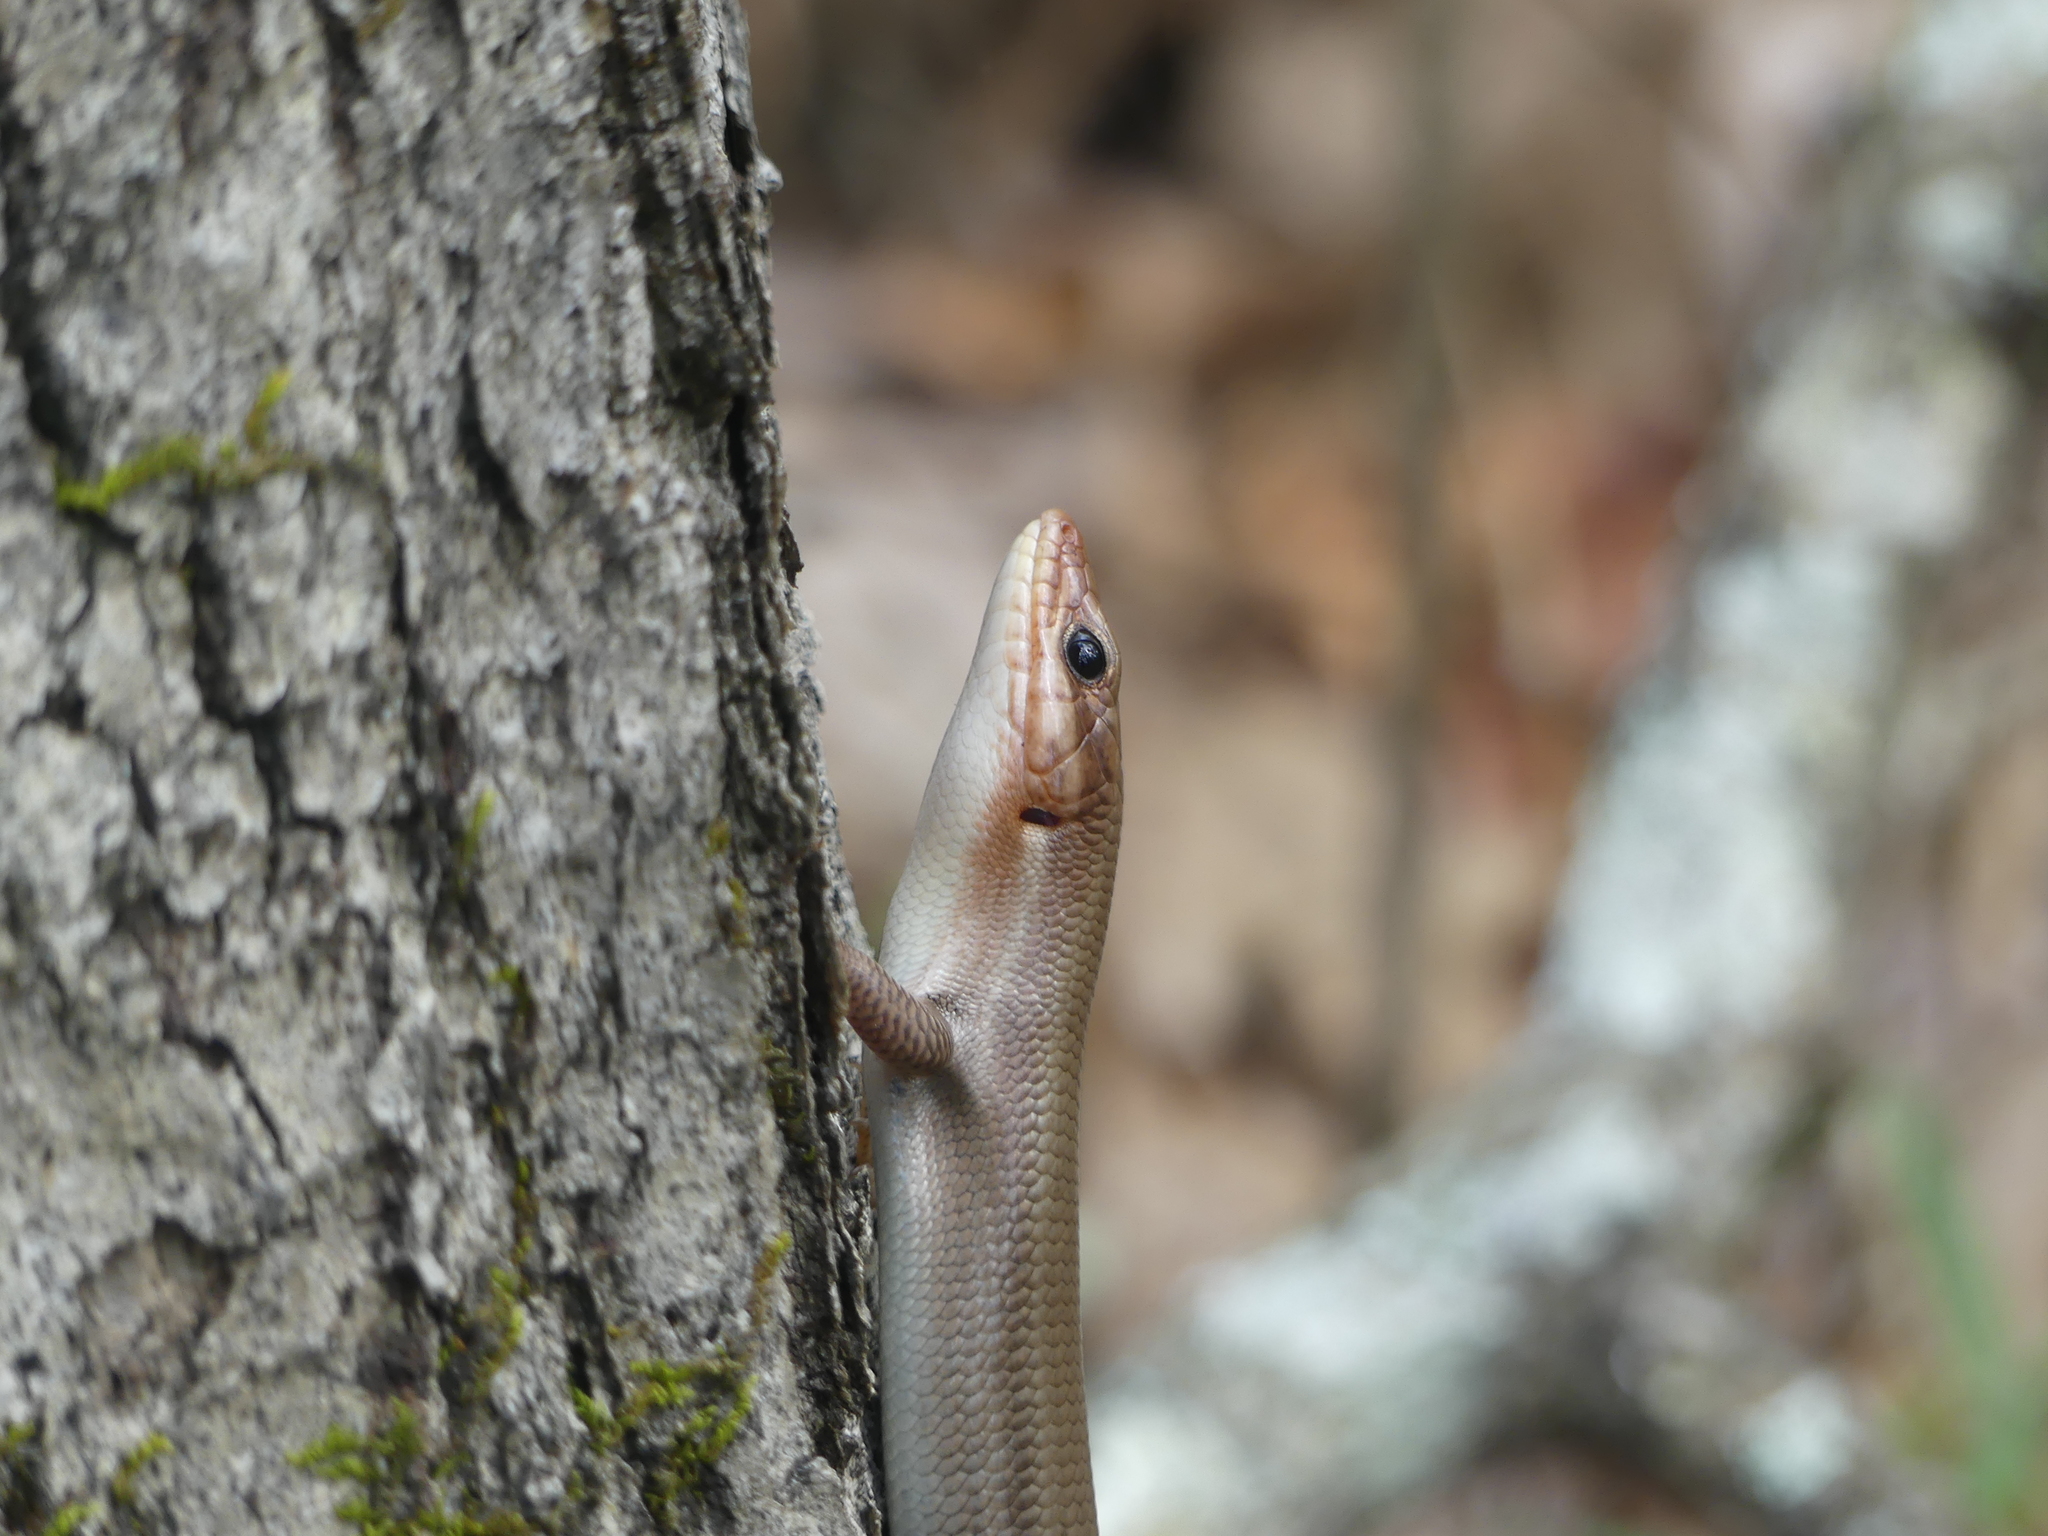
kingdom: Animalia
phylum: Chordata
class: Squamata
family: Scincidae
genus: Plestiodon
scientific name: Plestiodon laticeps
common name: Broadhead skink
